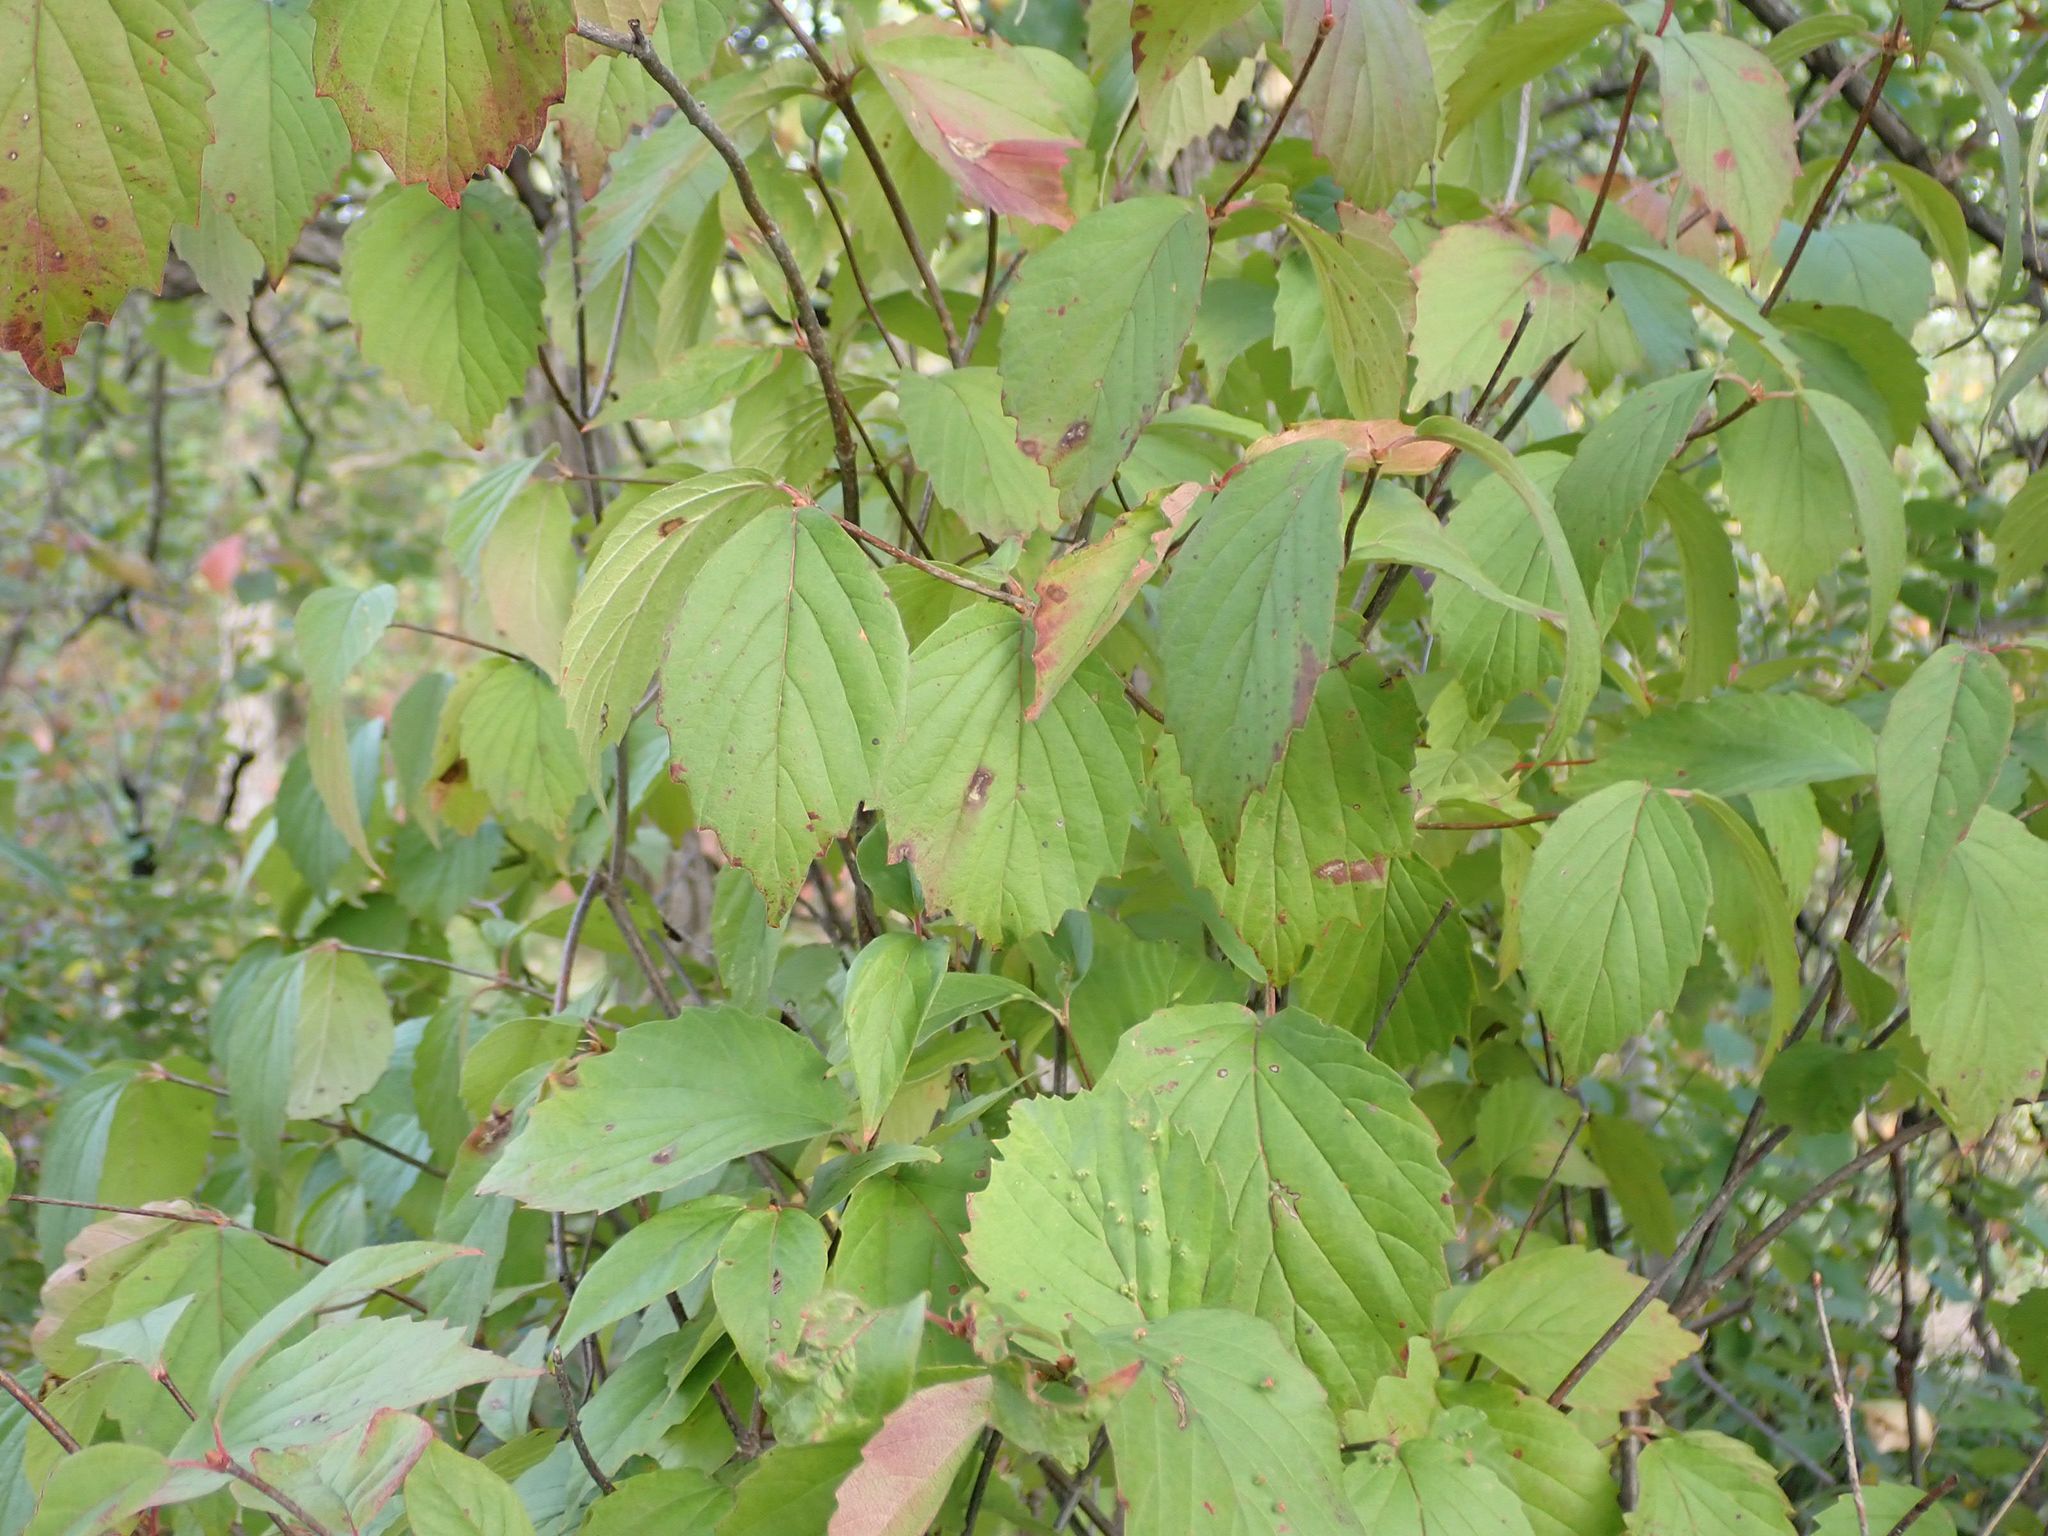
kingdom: Plantae
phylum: Tracheophyta
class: Magnoliopsida
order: Dipsacales
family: Viburnaceae
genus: Viburnum
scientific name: Viburnum rafinesqueanum
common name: Downy arrow-wood
